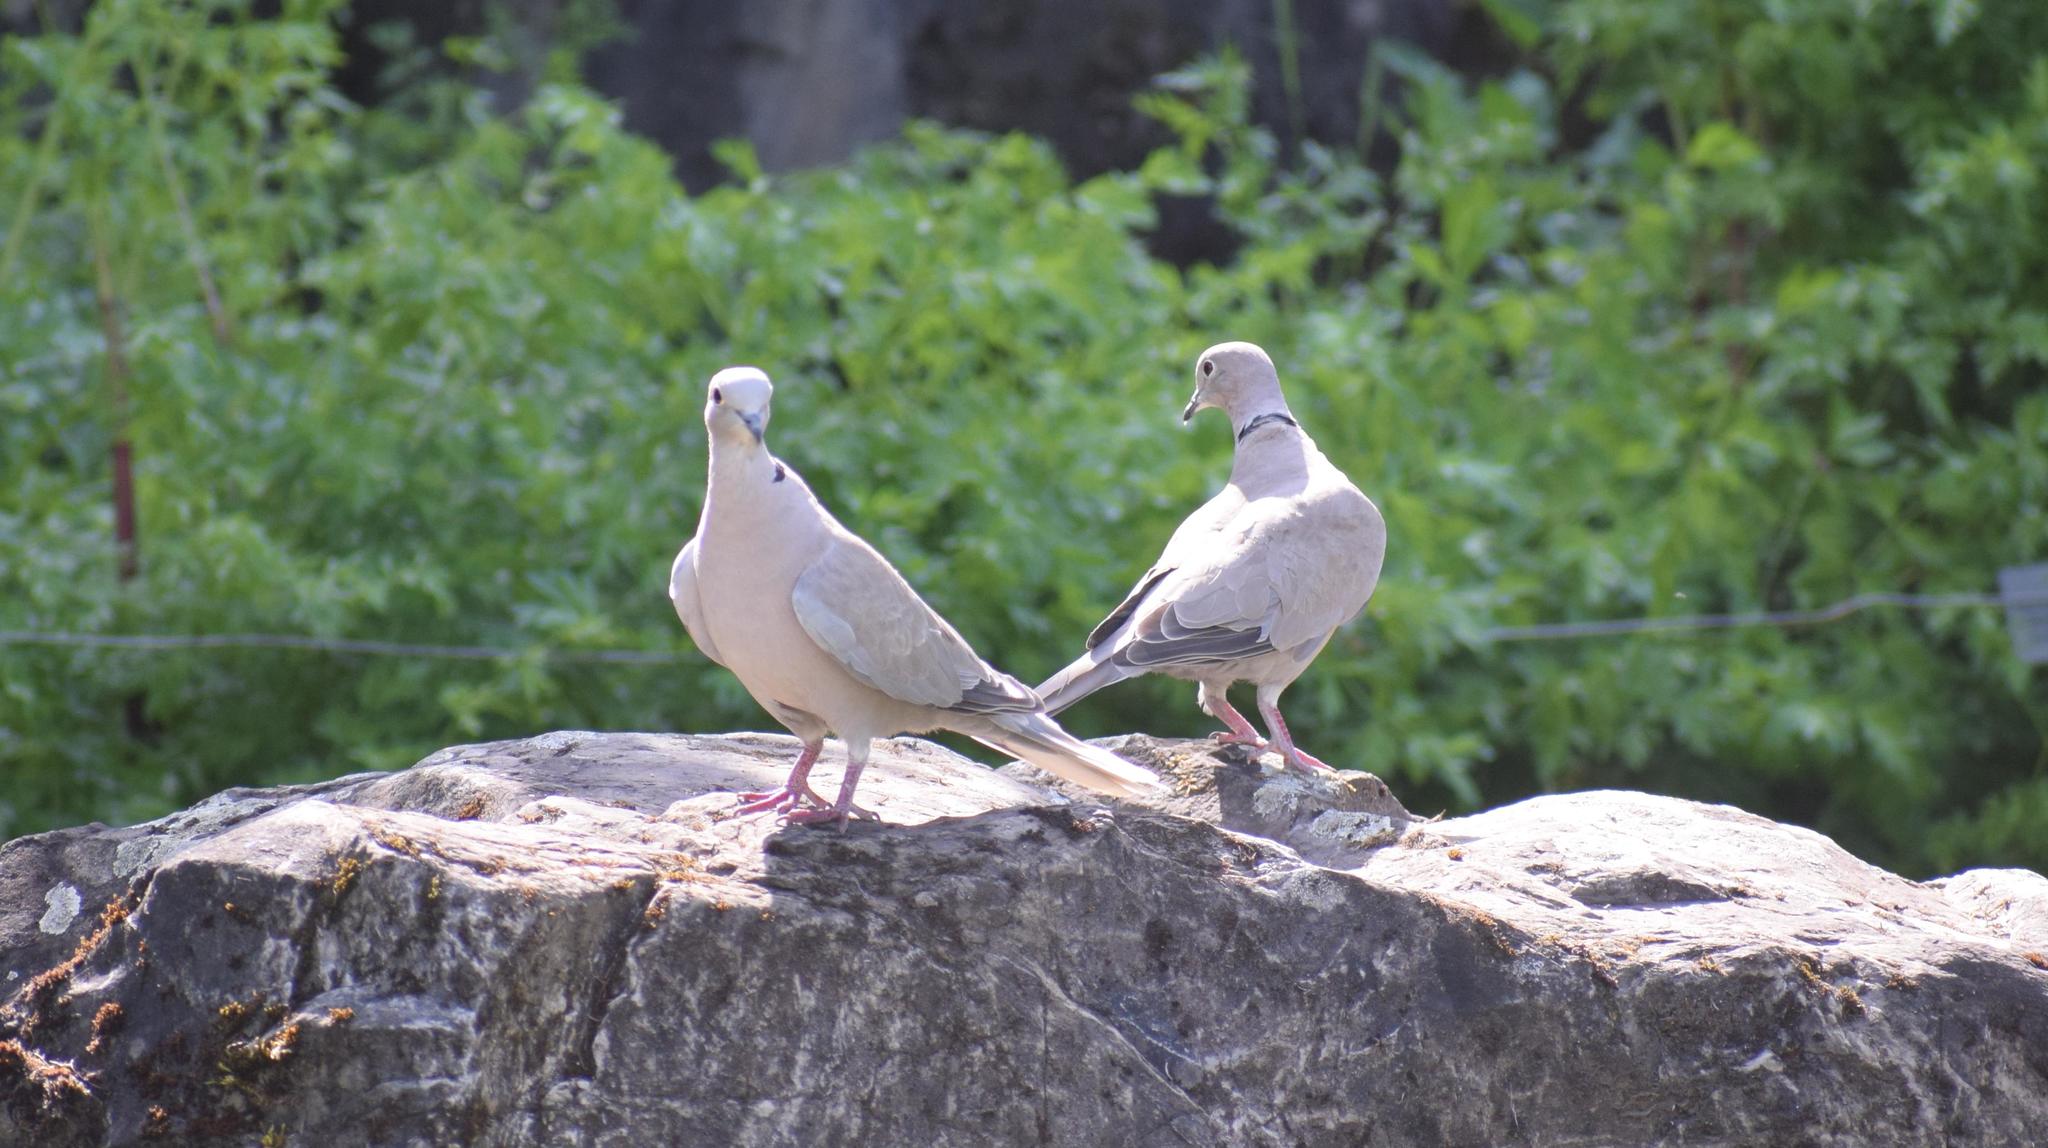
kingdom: Animalia
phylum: Chordata
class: Aves
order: Columbiformes
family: Columbidae
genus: Streptopelia
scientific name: Streptopelia decaocto
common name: Eurasian collared dove
